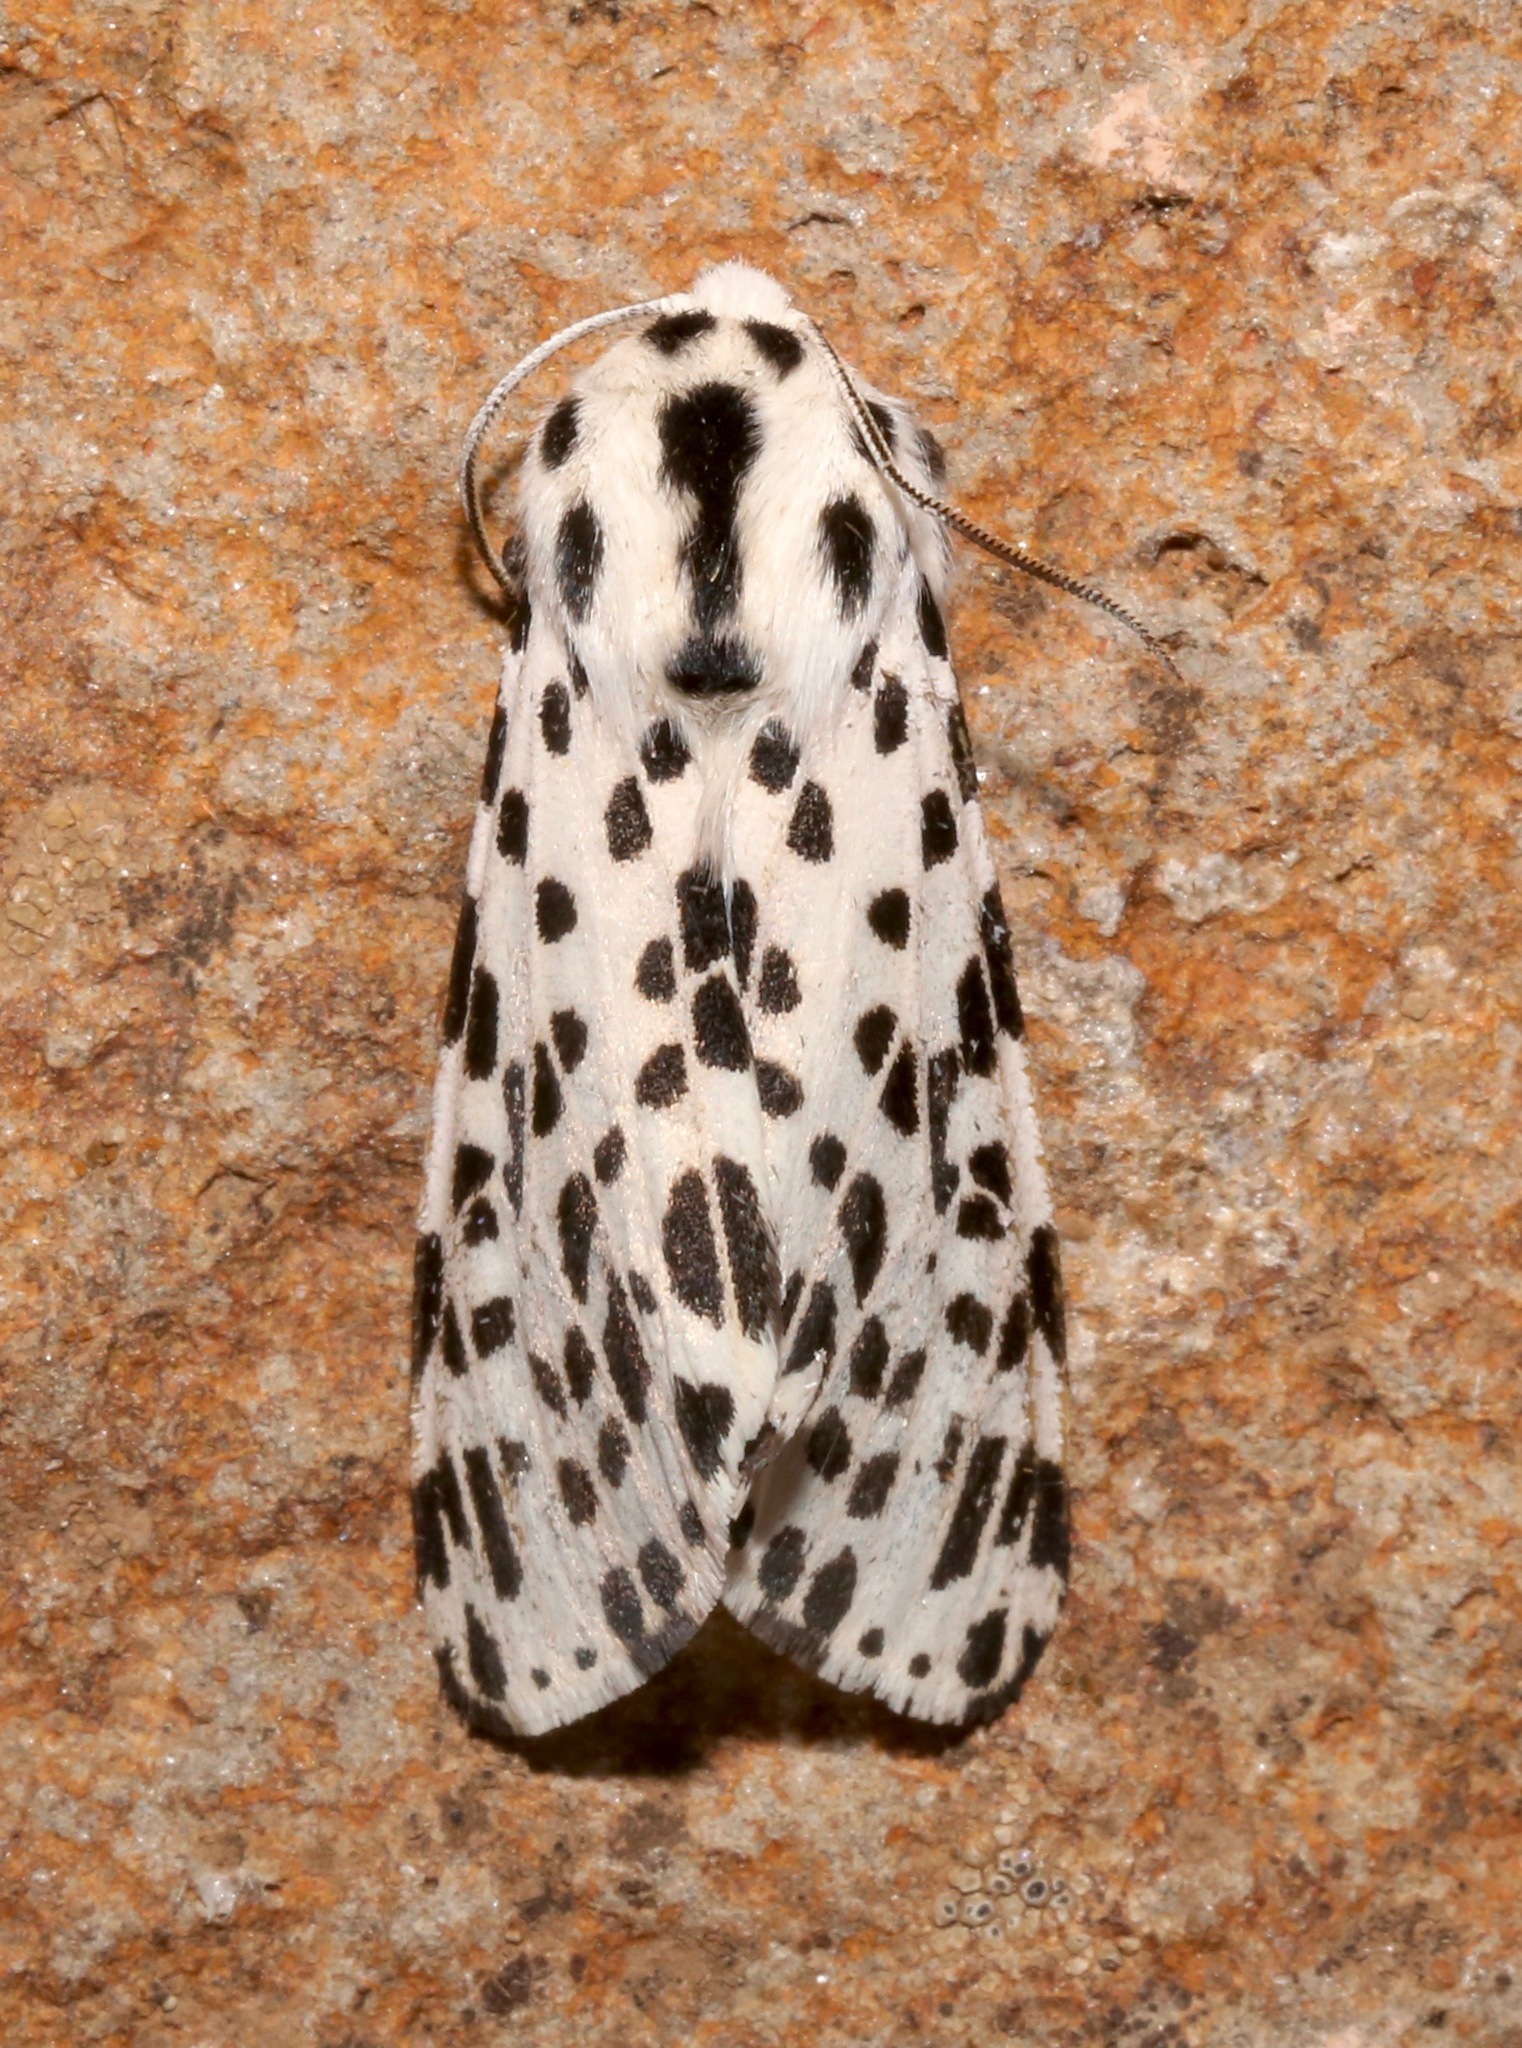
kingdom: Animalia
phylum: Arthropoda
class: Insecta
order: Lepidoptera
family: Erebidae
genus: Hypercompe
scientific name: Hypercompe permaculata
